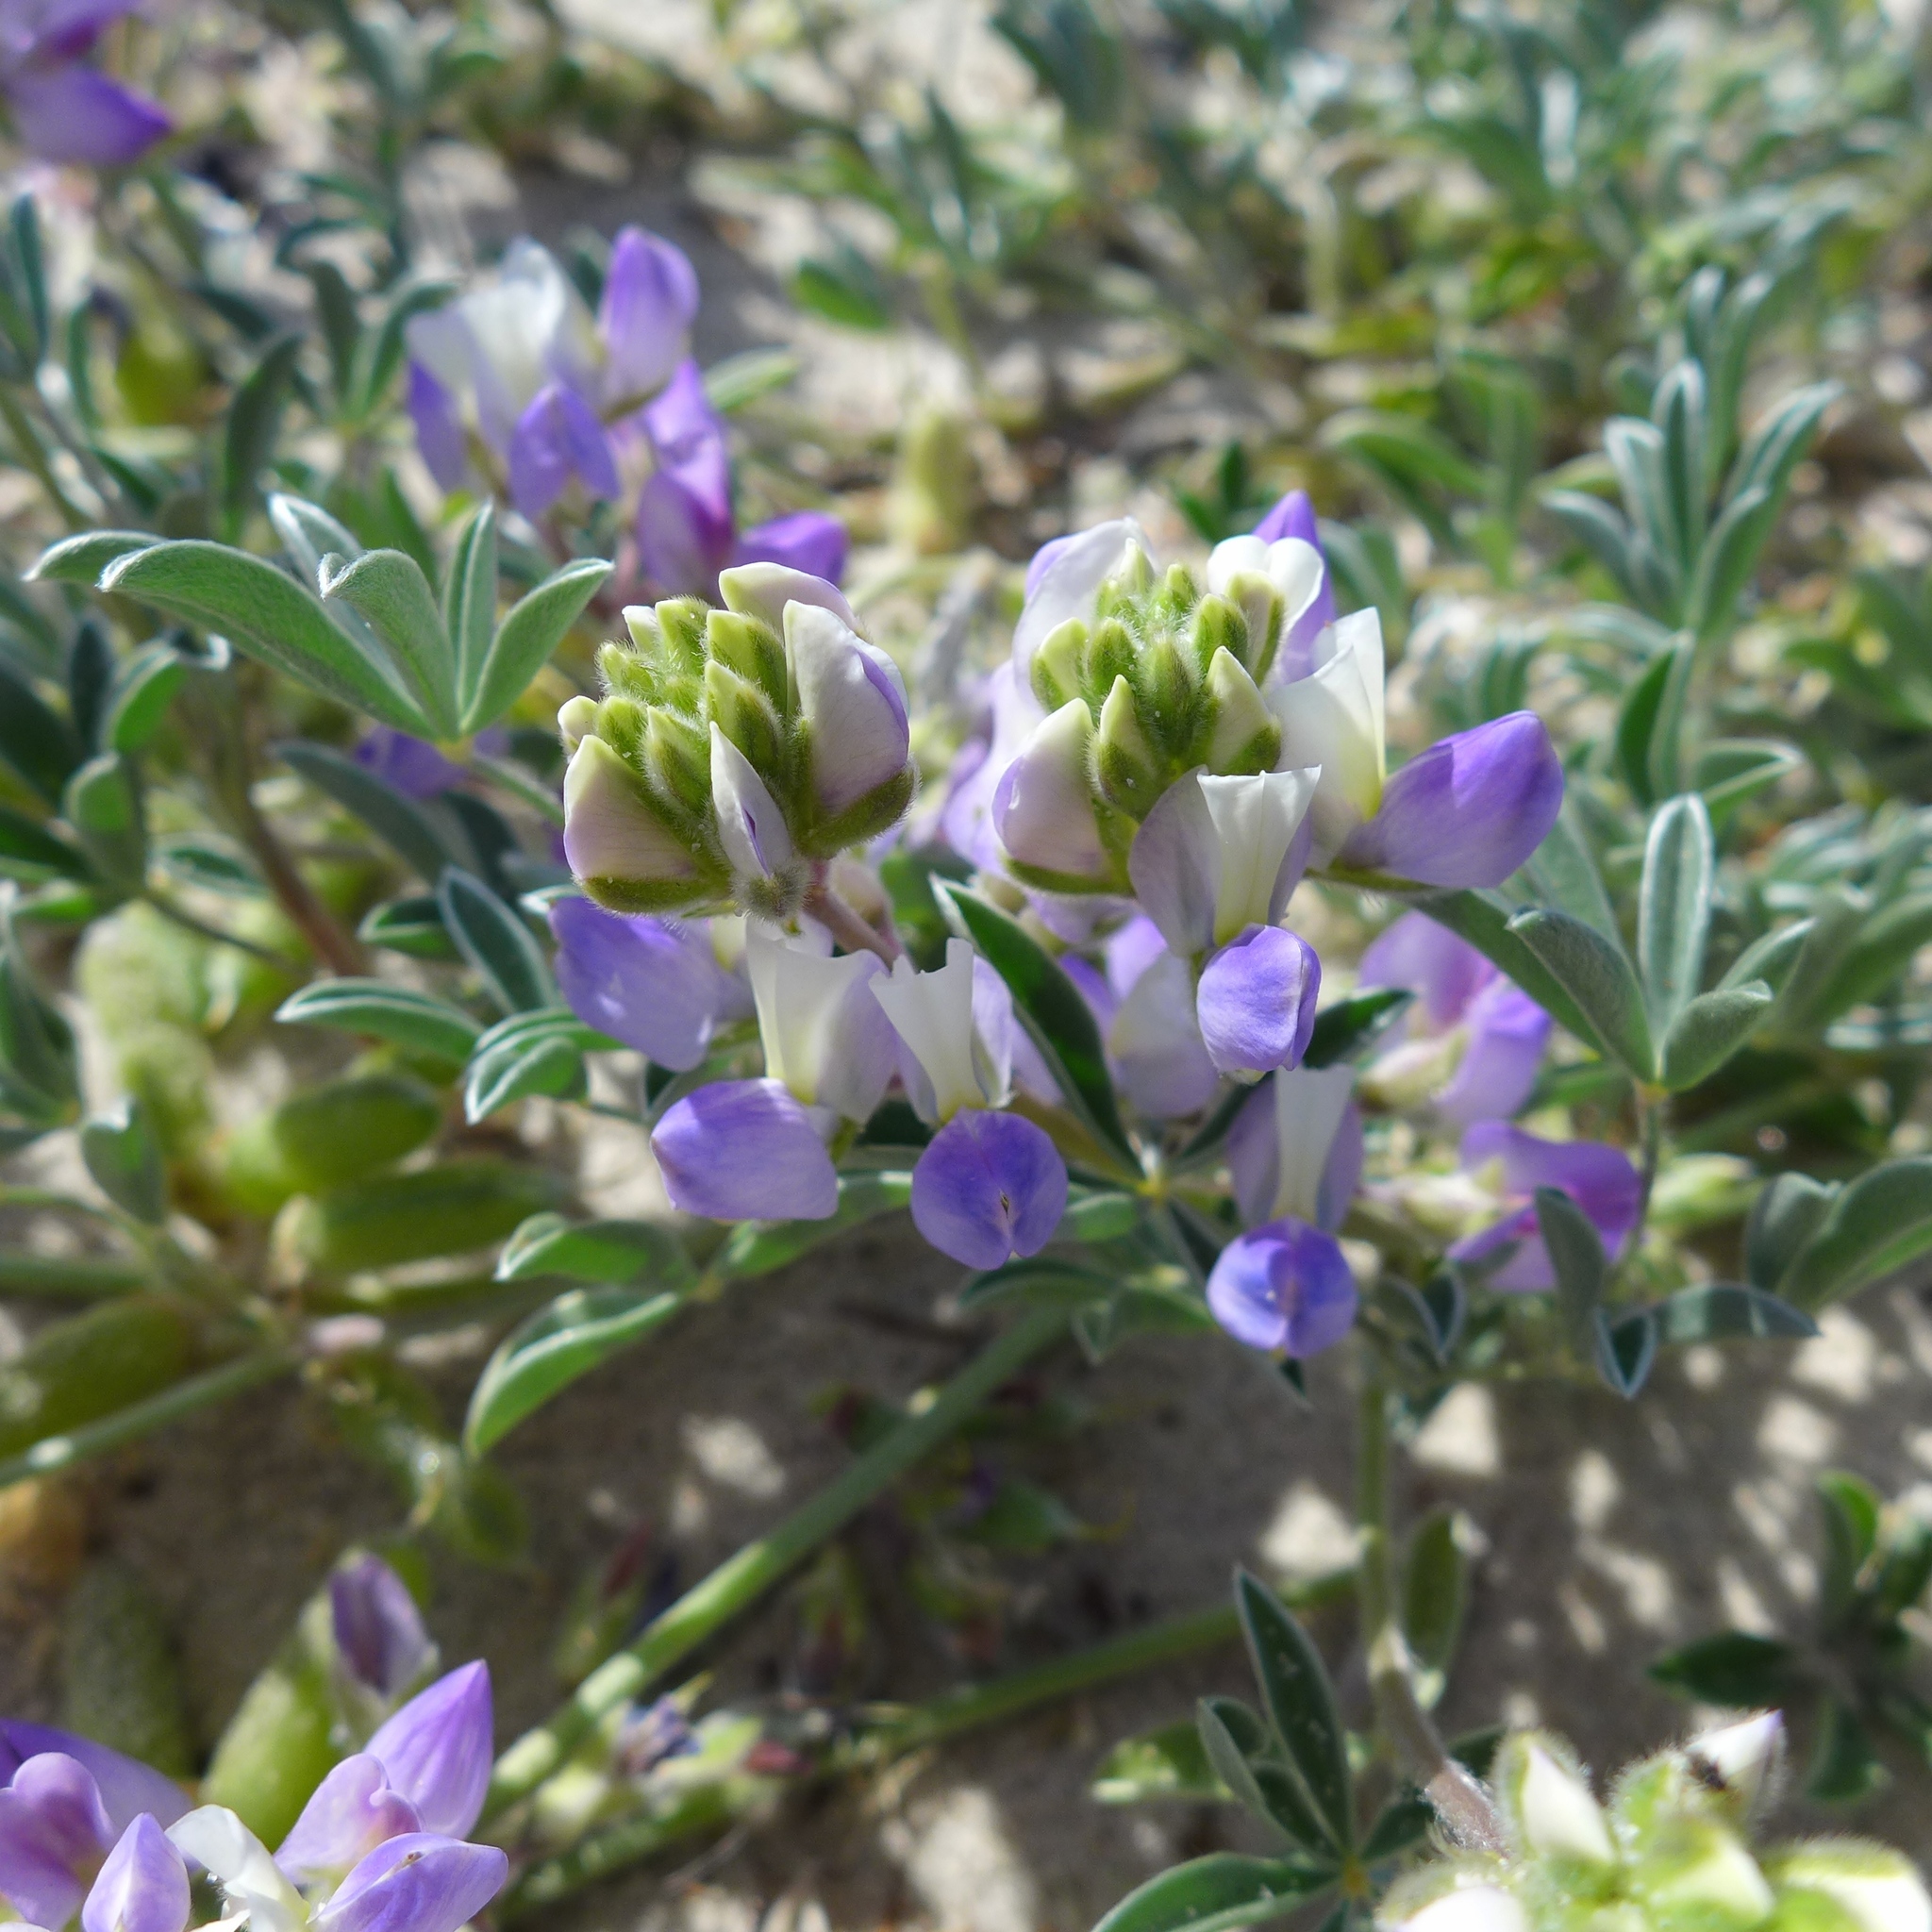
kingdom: Plantae
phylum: Tracheophyta
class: Magnoliopsida
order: Fabales
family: Fabaceae
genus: Lupinus
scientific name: Lupinus tidestromii
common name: Clover lupine
